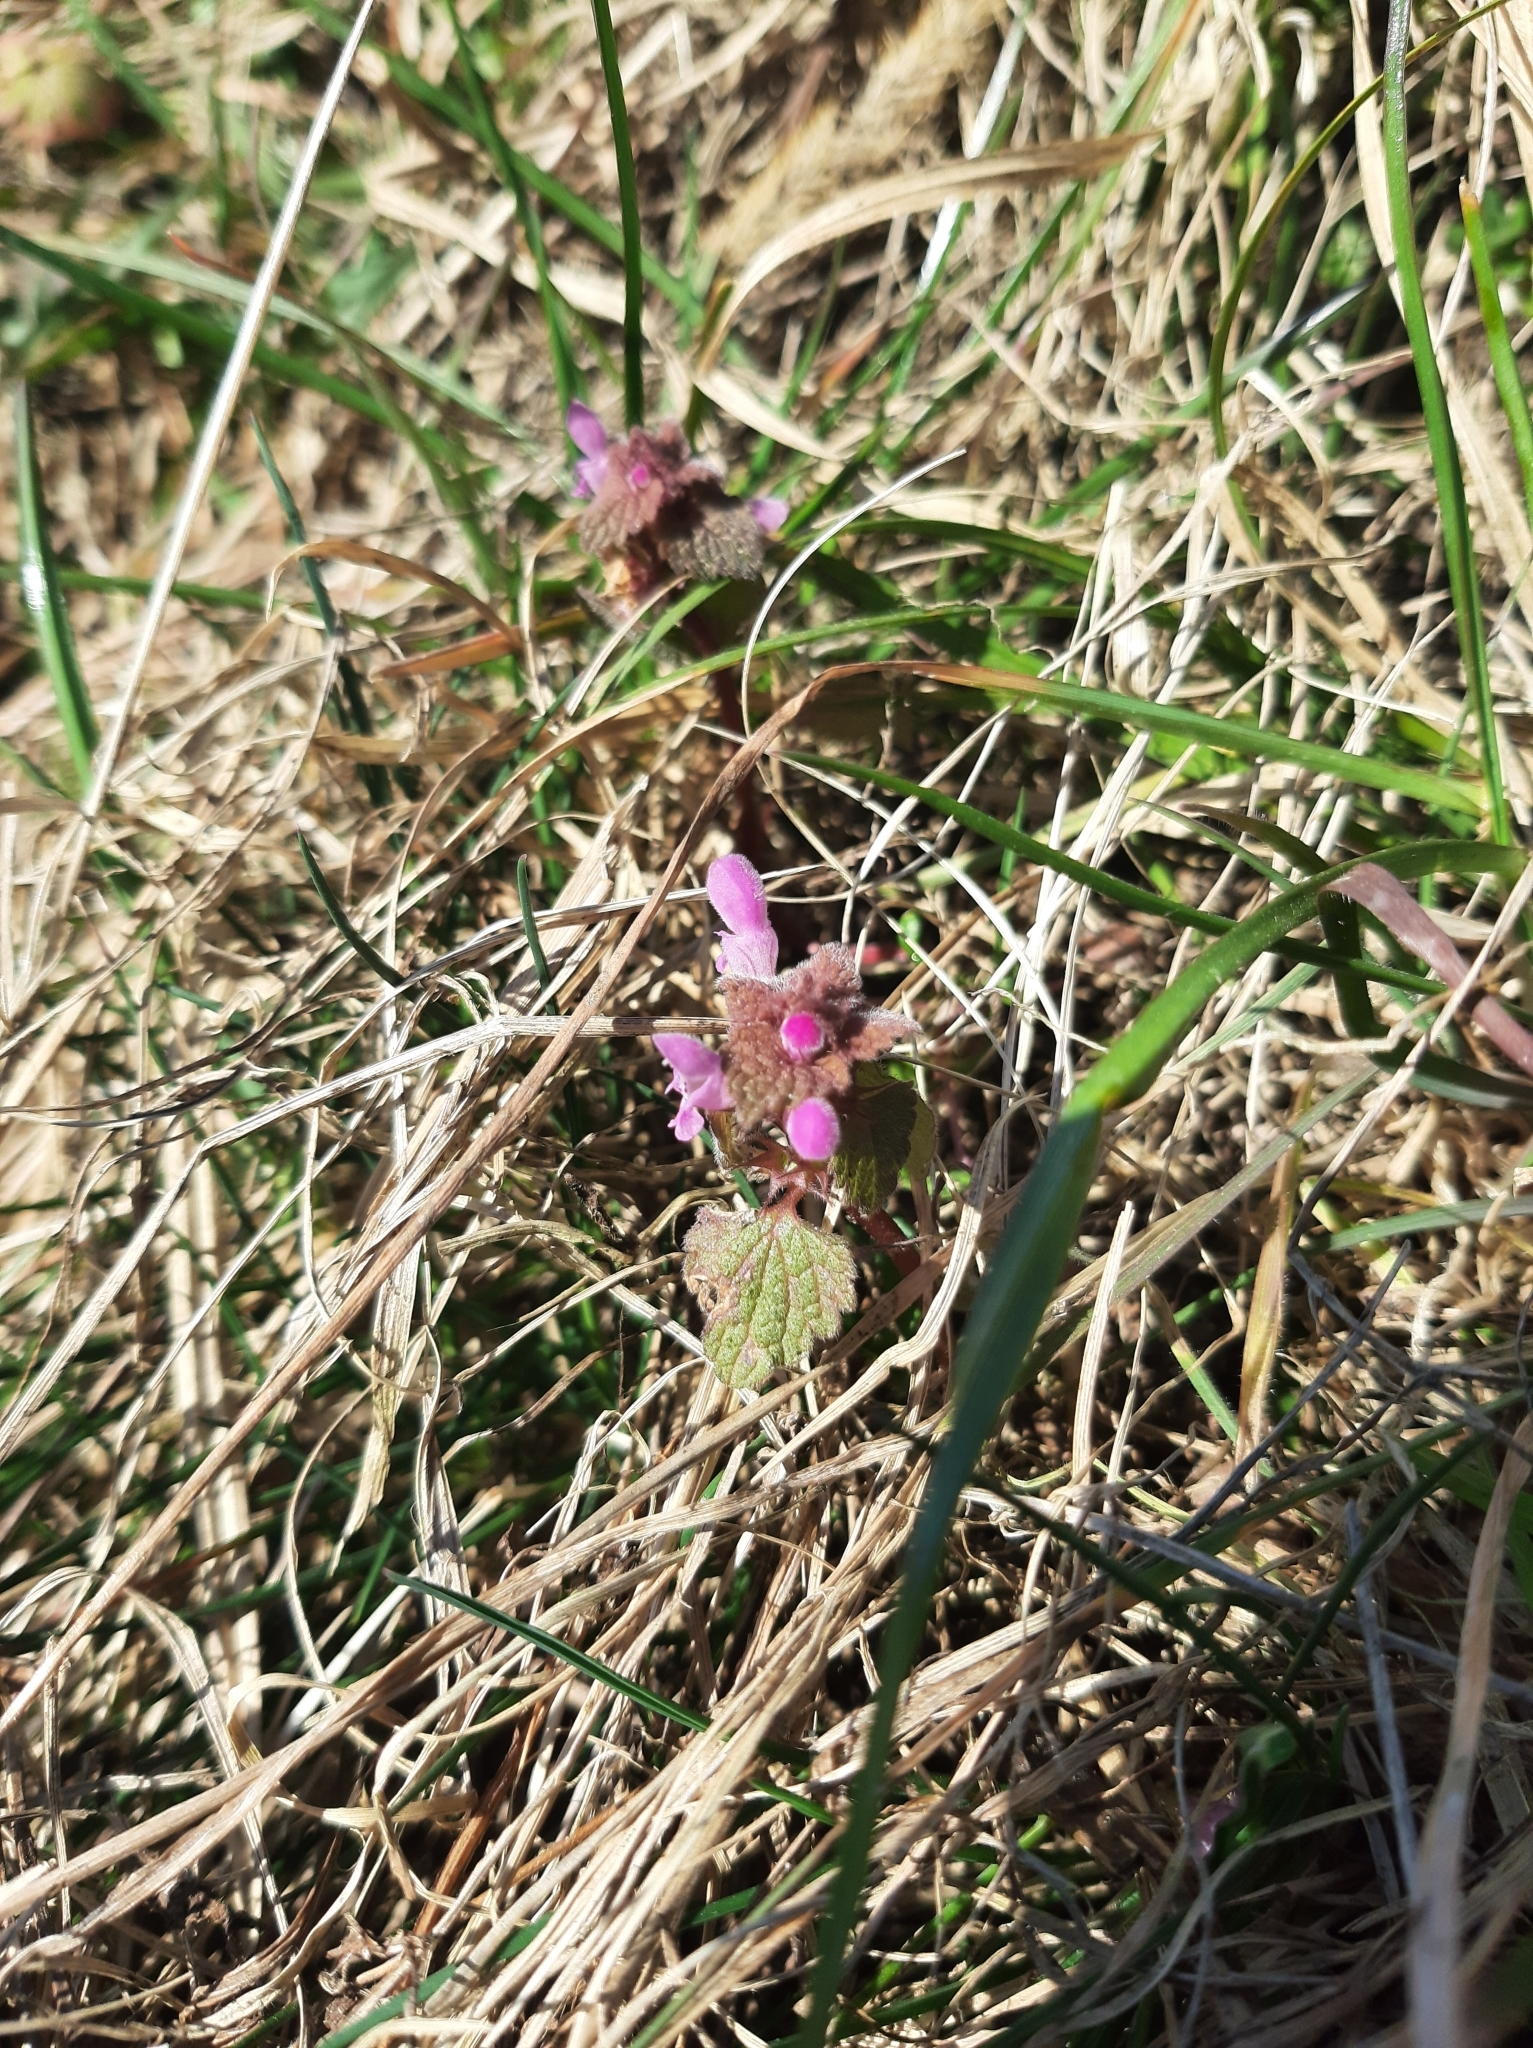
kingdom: Plantae
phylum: Tracheophyta
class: Magnoliopsida
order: Lamiales
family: Lamiaceae
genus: Lamium
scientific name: Lamium purpureum
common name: Red dead-nettle
